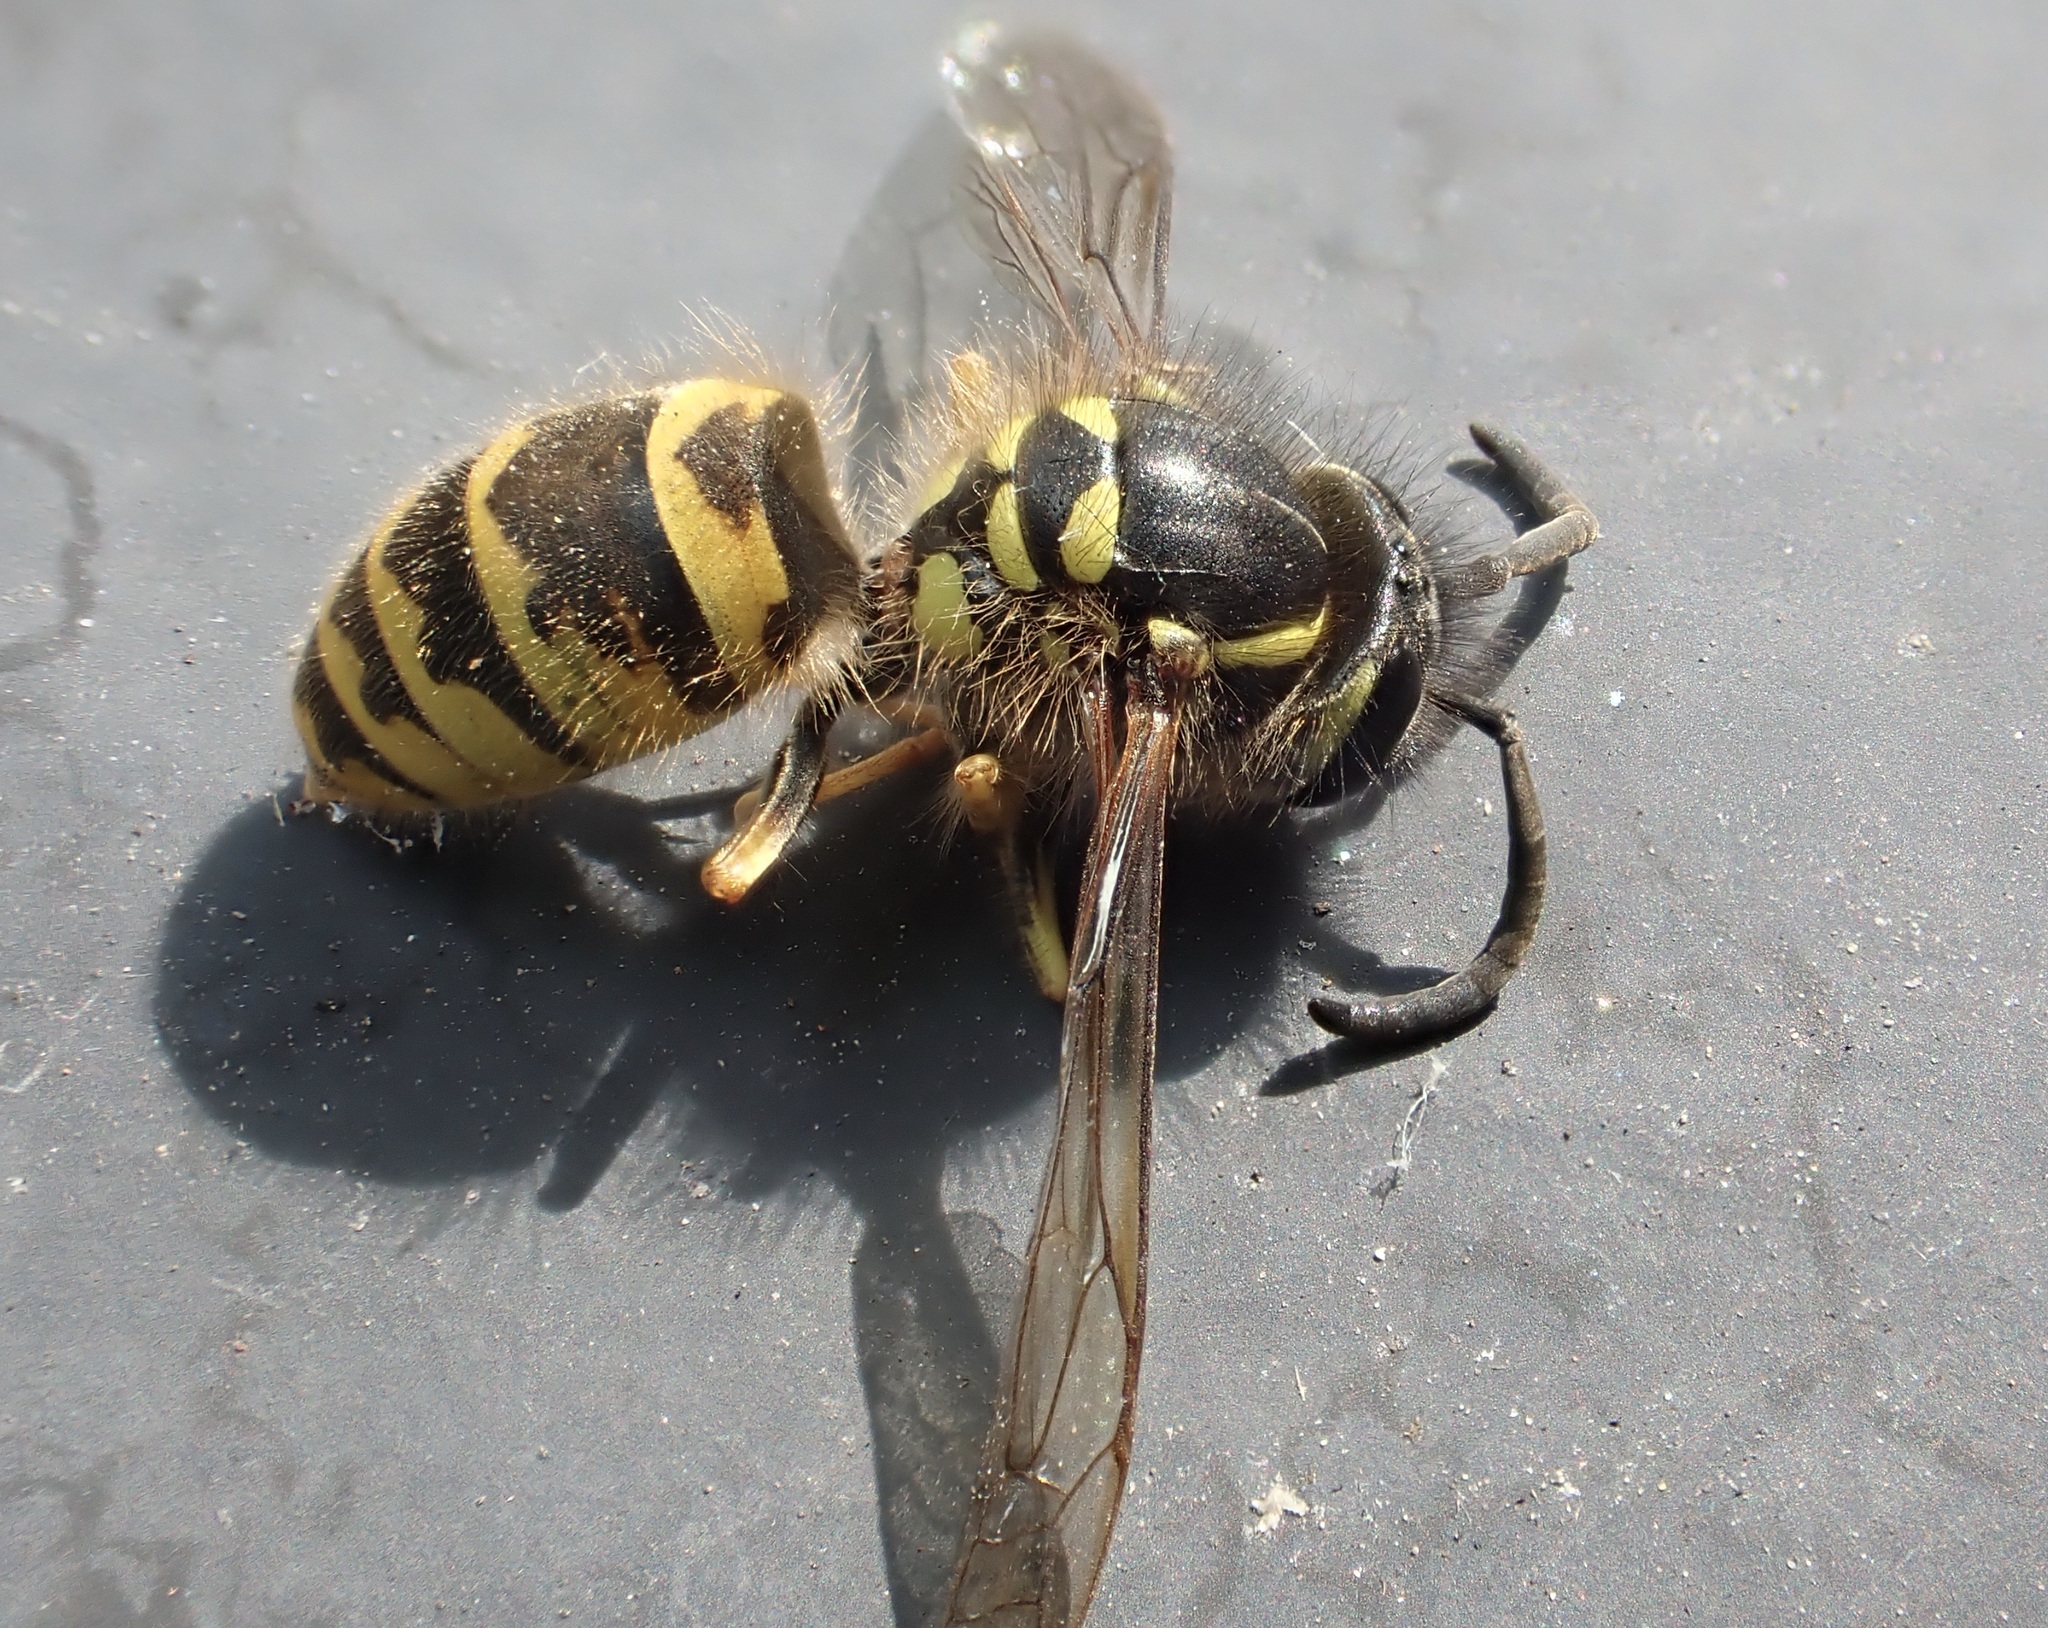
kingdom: Animalia
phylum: Arthropoda
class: Insecta
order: Hymenoptera
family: Vespidae
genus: Vespula
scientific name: Vespula vulgaris
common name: Common wasp
